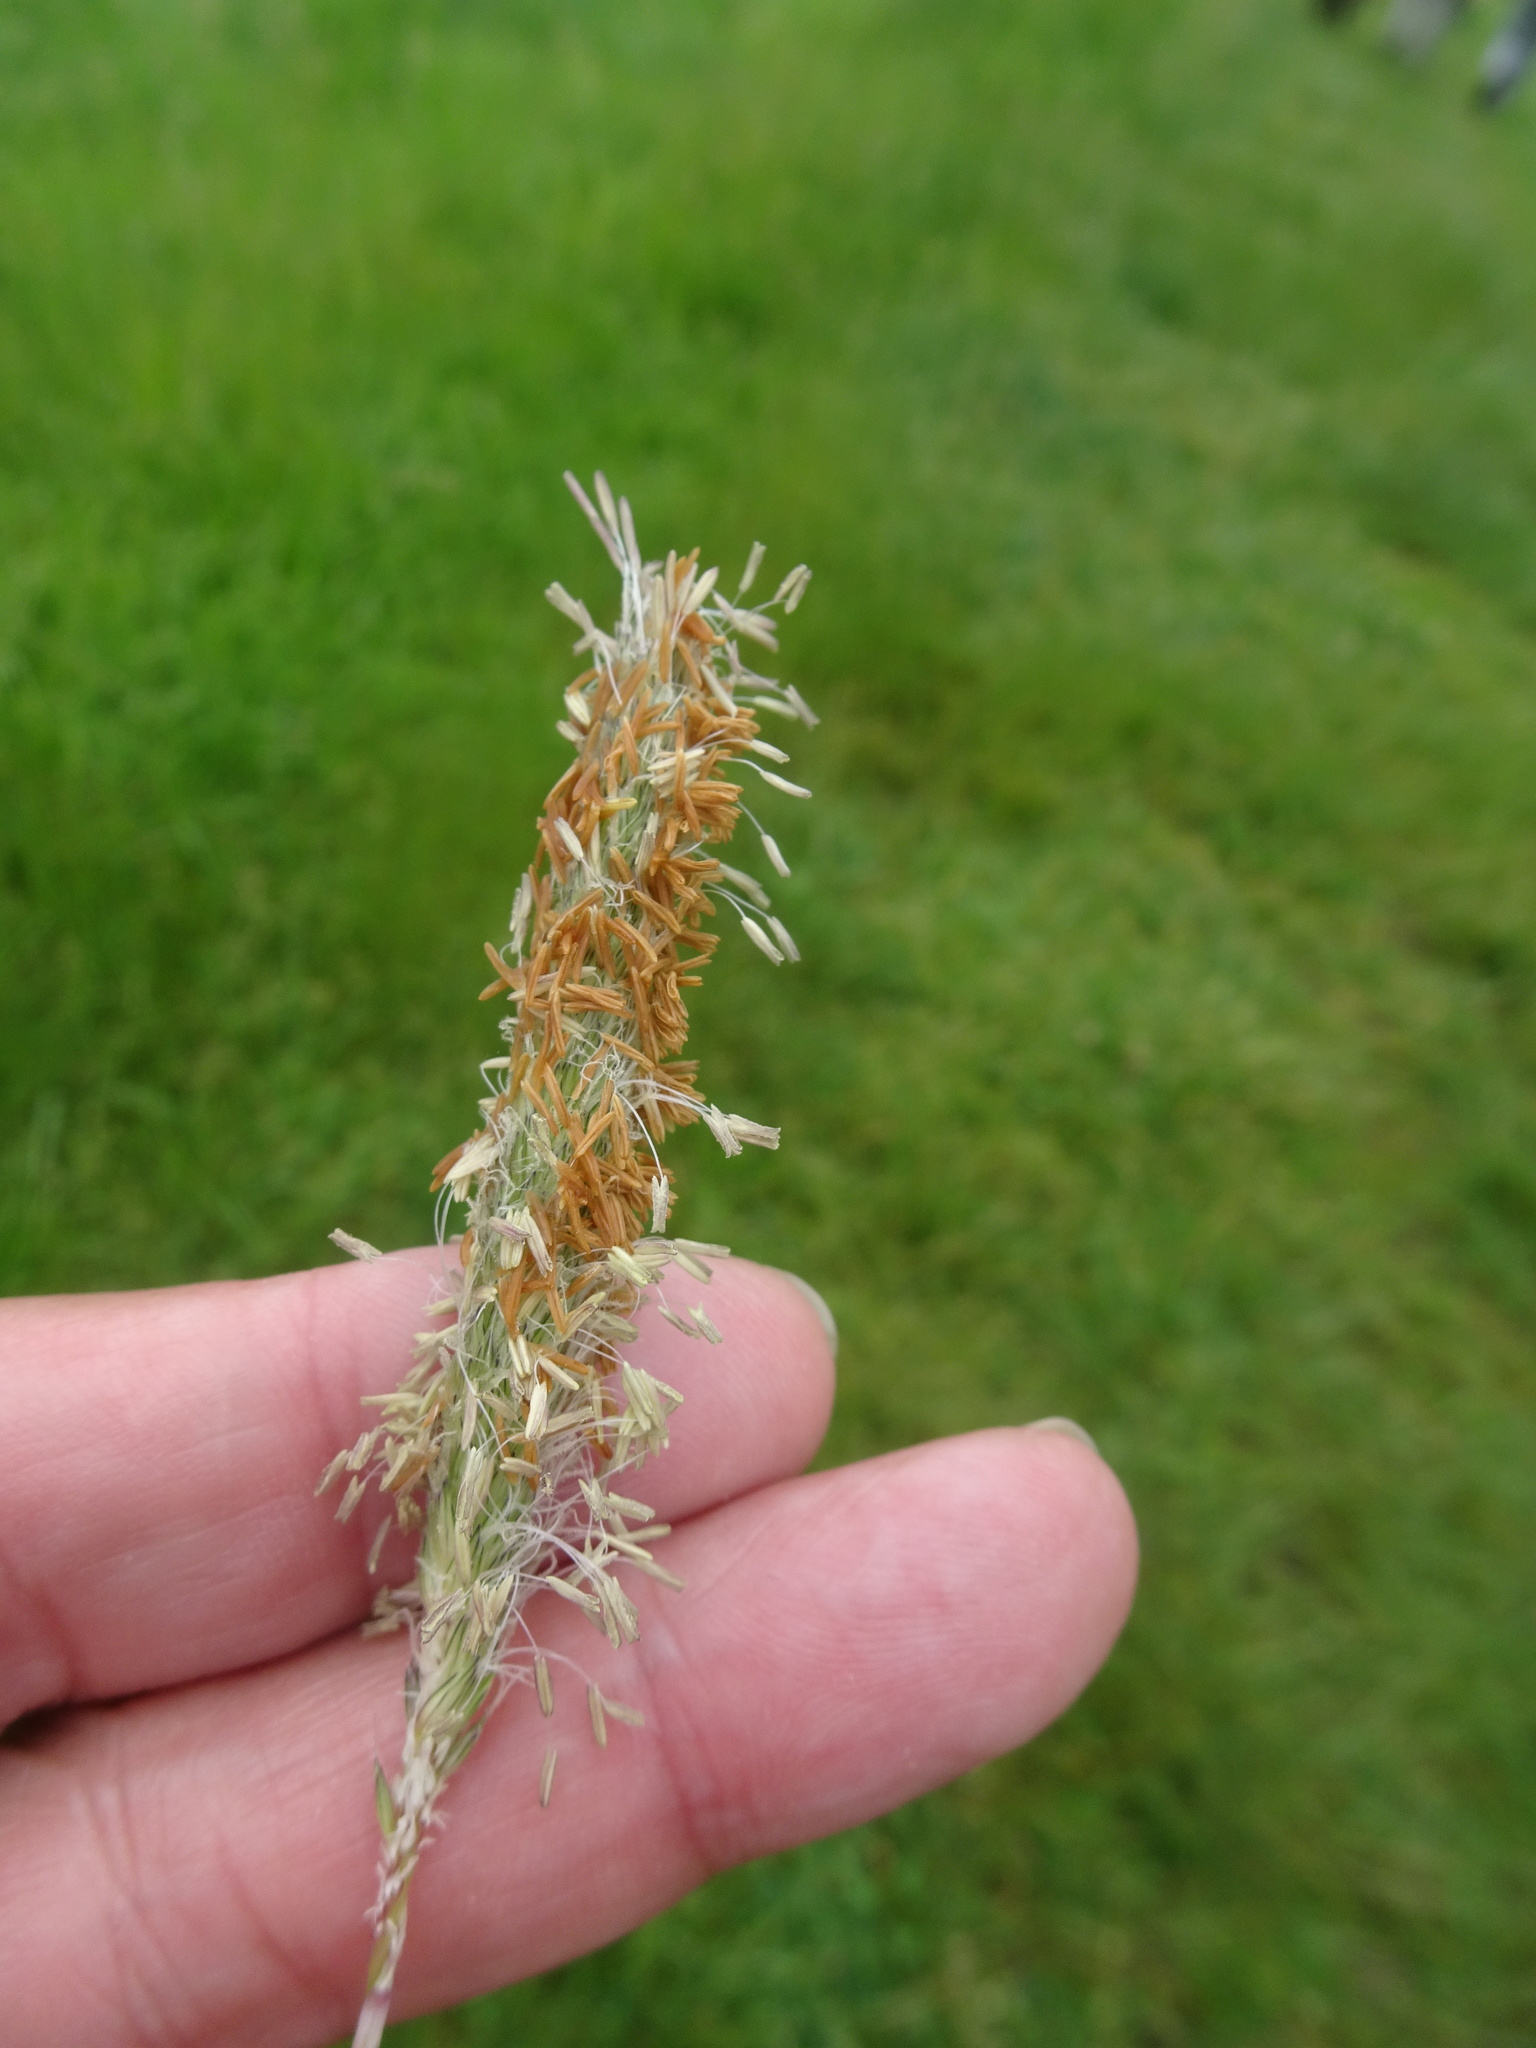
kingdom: Plantae
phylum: Tracheophyta
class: Liliopsida
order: Poales
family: Poaceae
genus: Alopecurus
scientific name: Alopecurus pratensis
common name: Meadow foxtail
